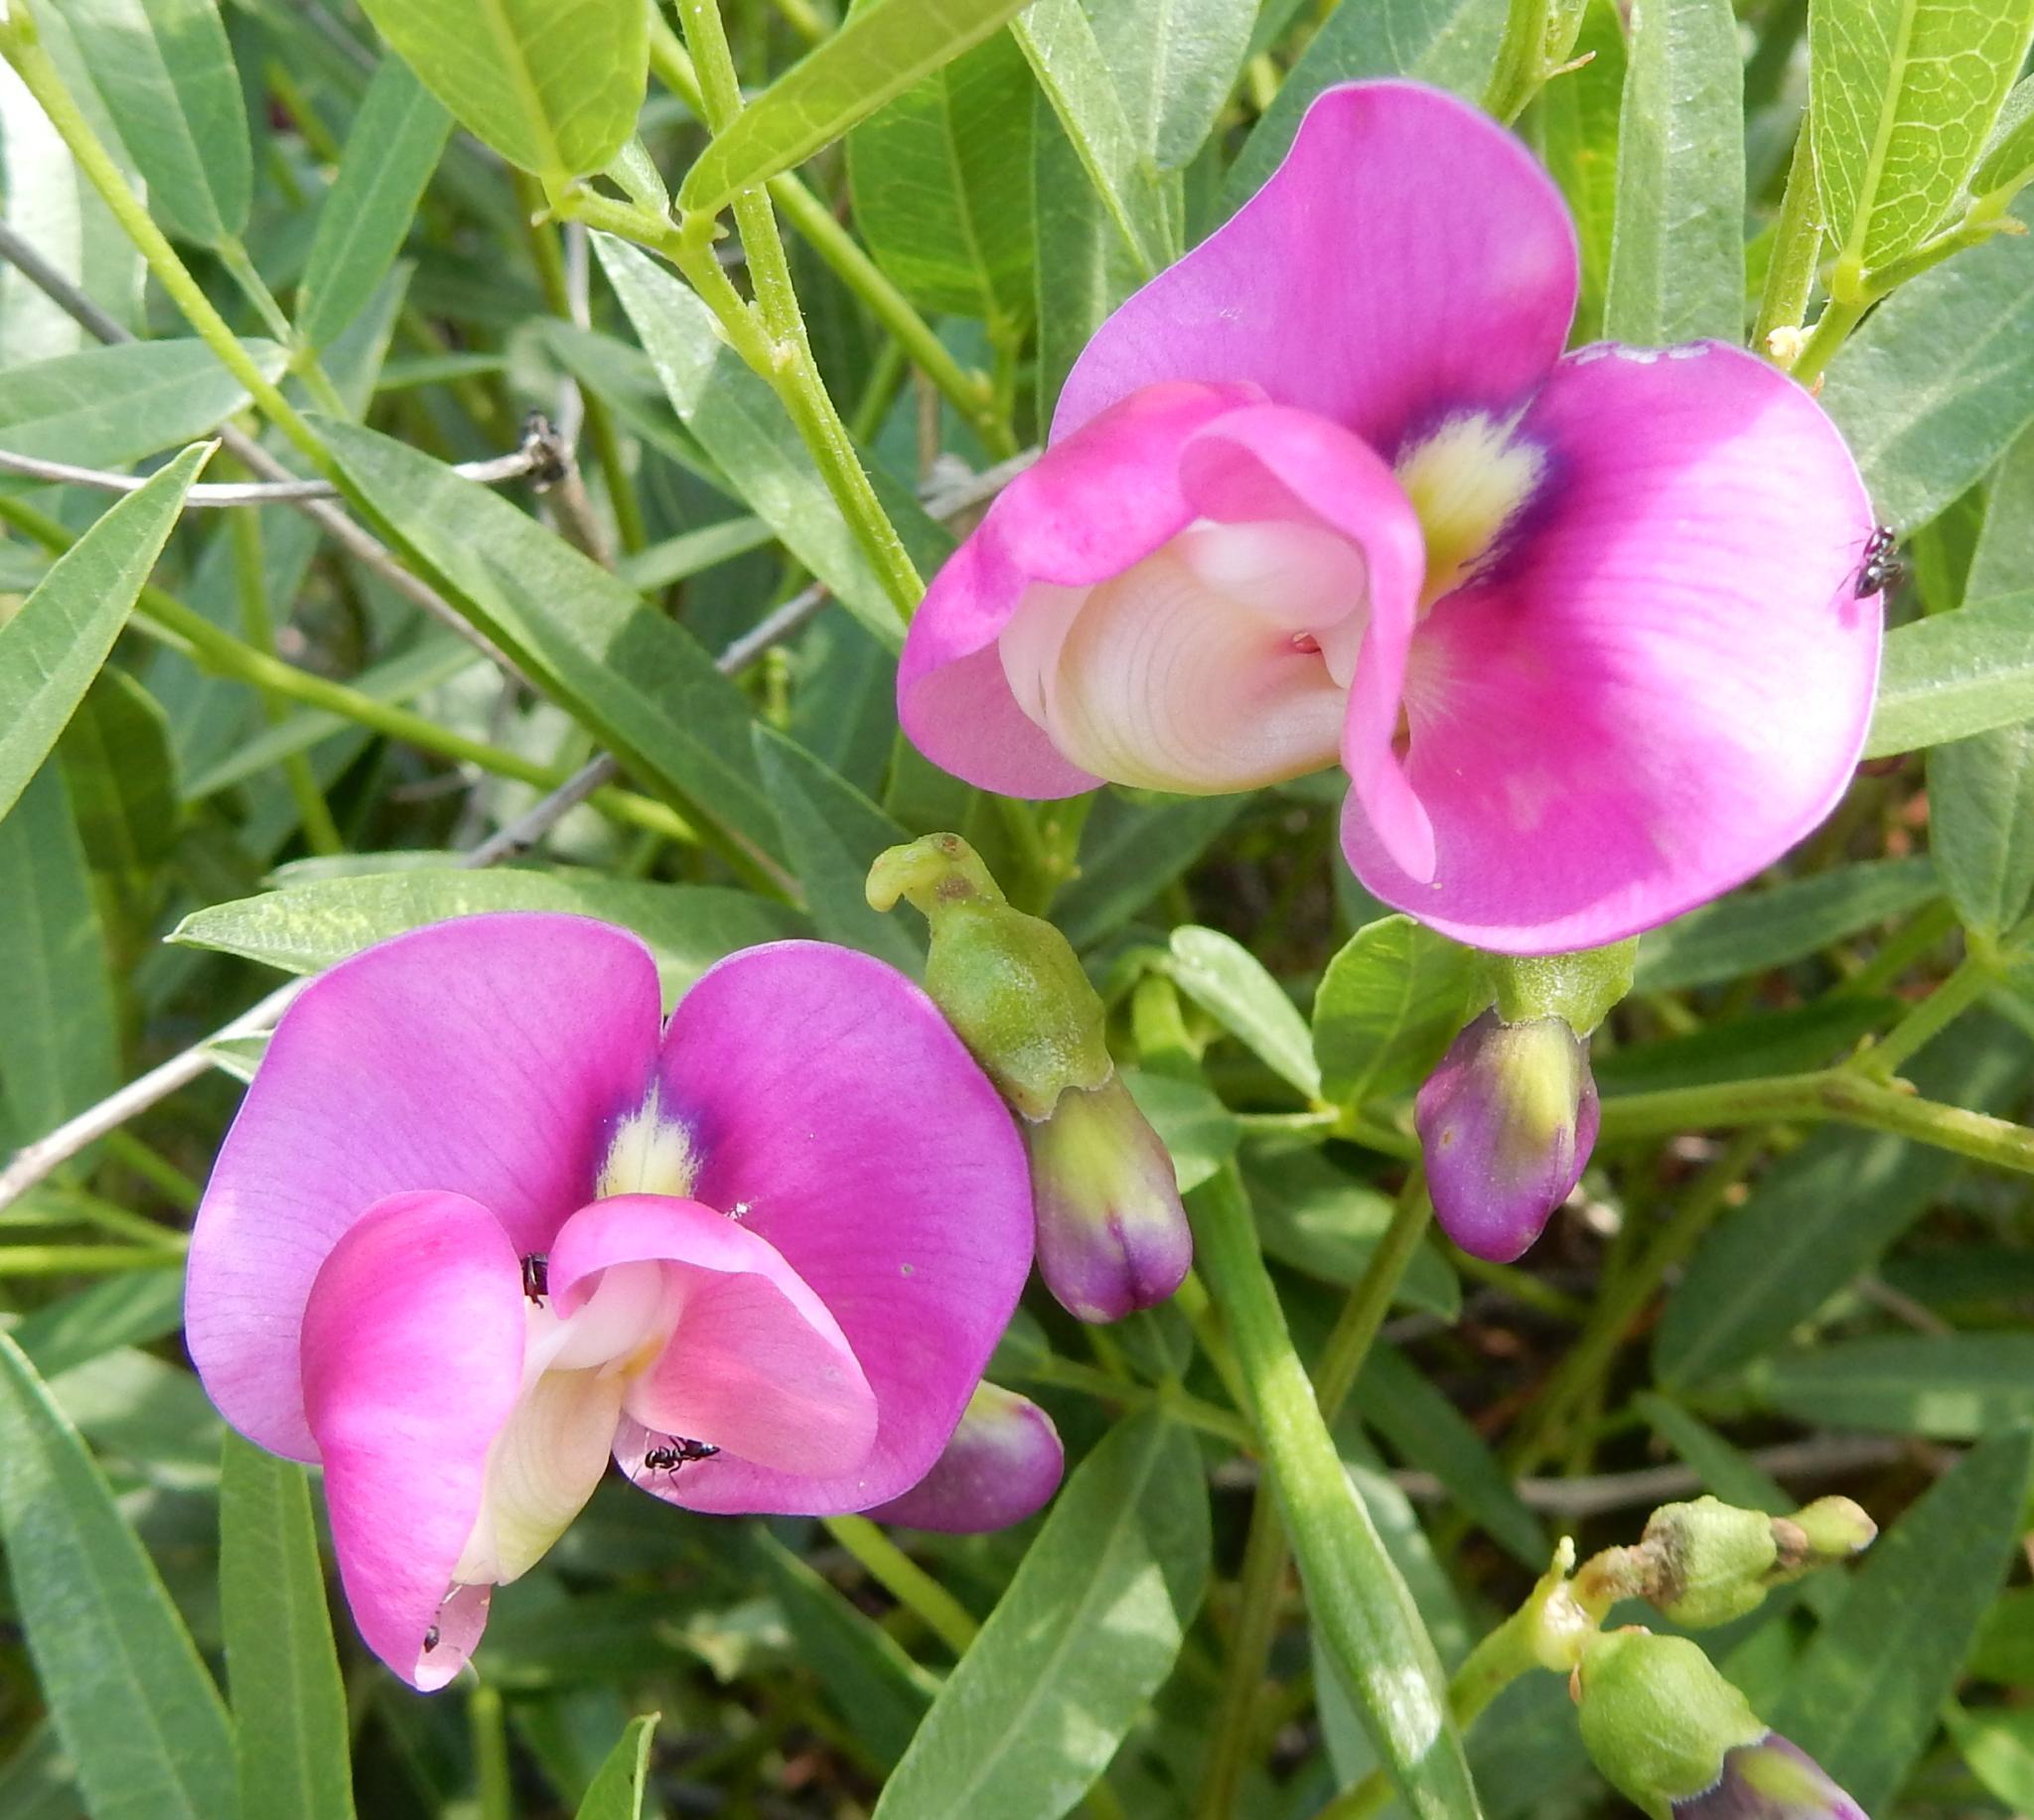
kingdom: Animalia
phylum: Arthropoda
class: Insecta
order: Hymenoptera
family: Formicidae
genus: Lepisiota
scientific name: Lepisiota incisa
